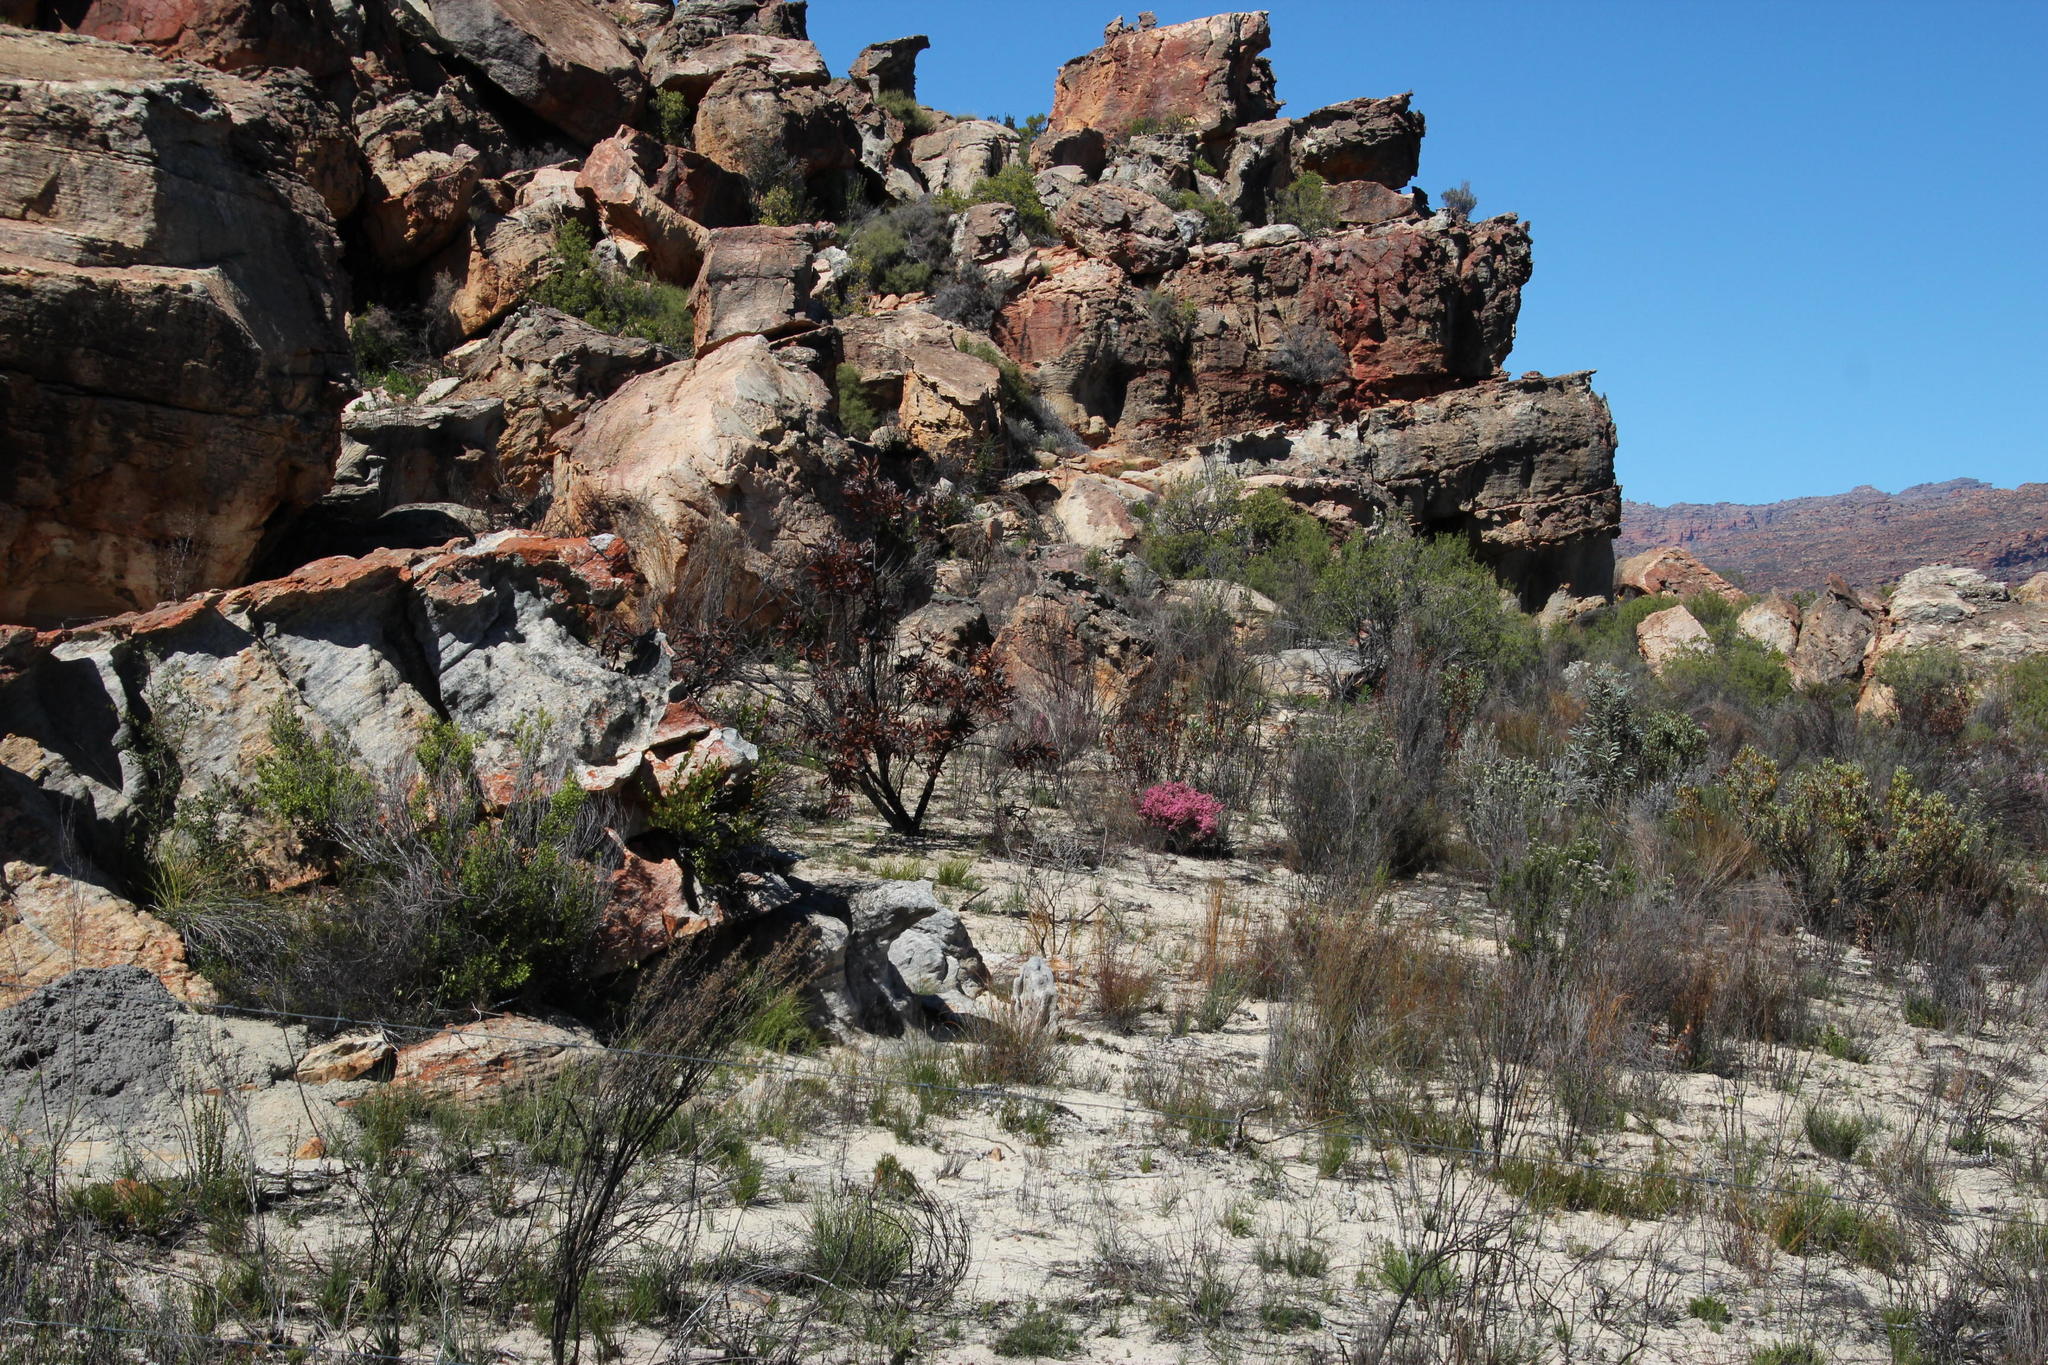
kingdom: Plantae
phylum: Tracheophyta
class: Magnoliopsida
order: Ericales
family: Ericaceae
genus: Erica
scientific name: Erica plumosa
